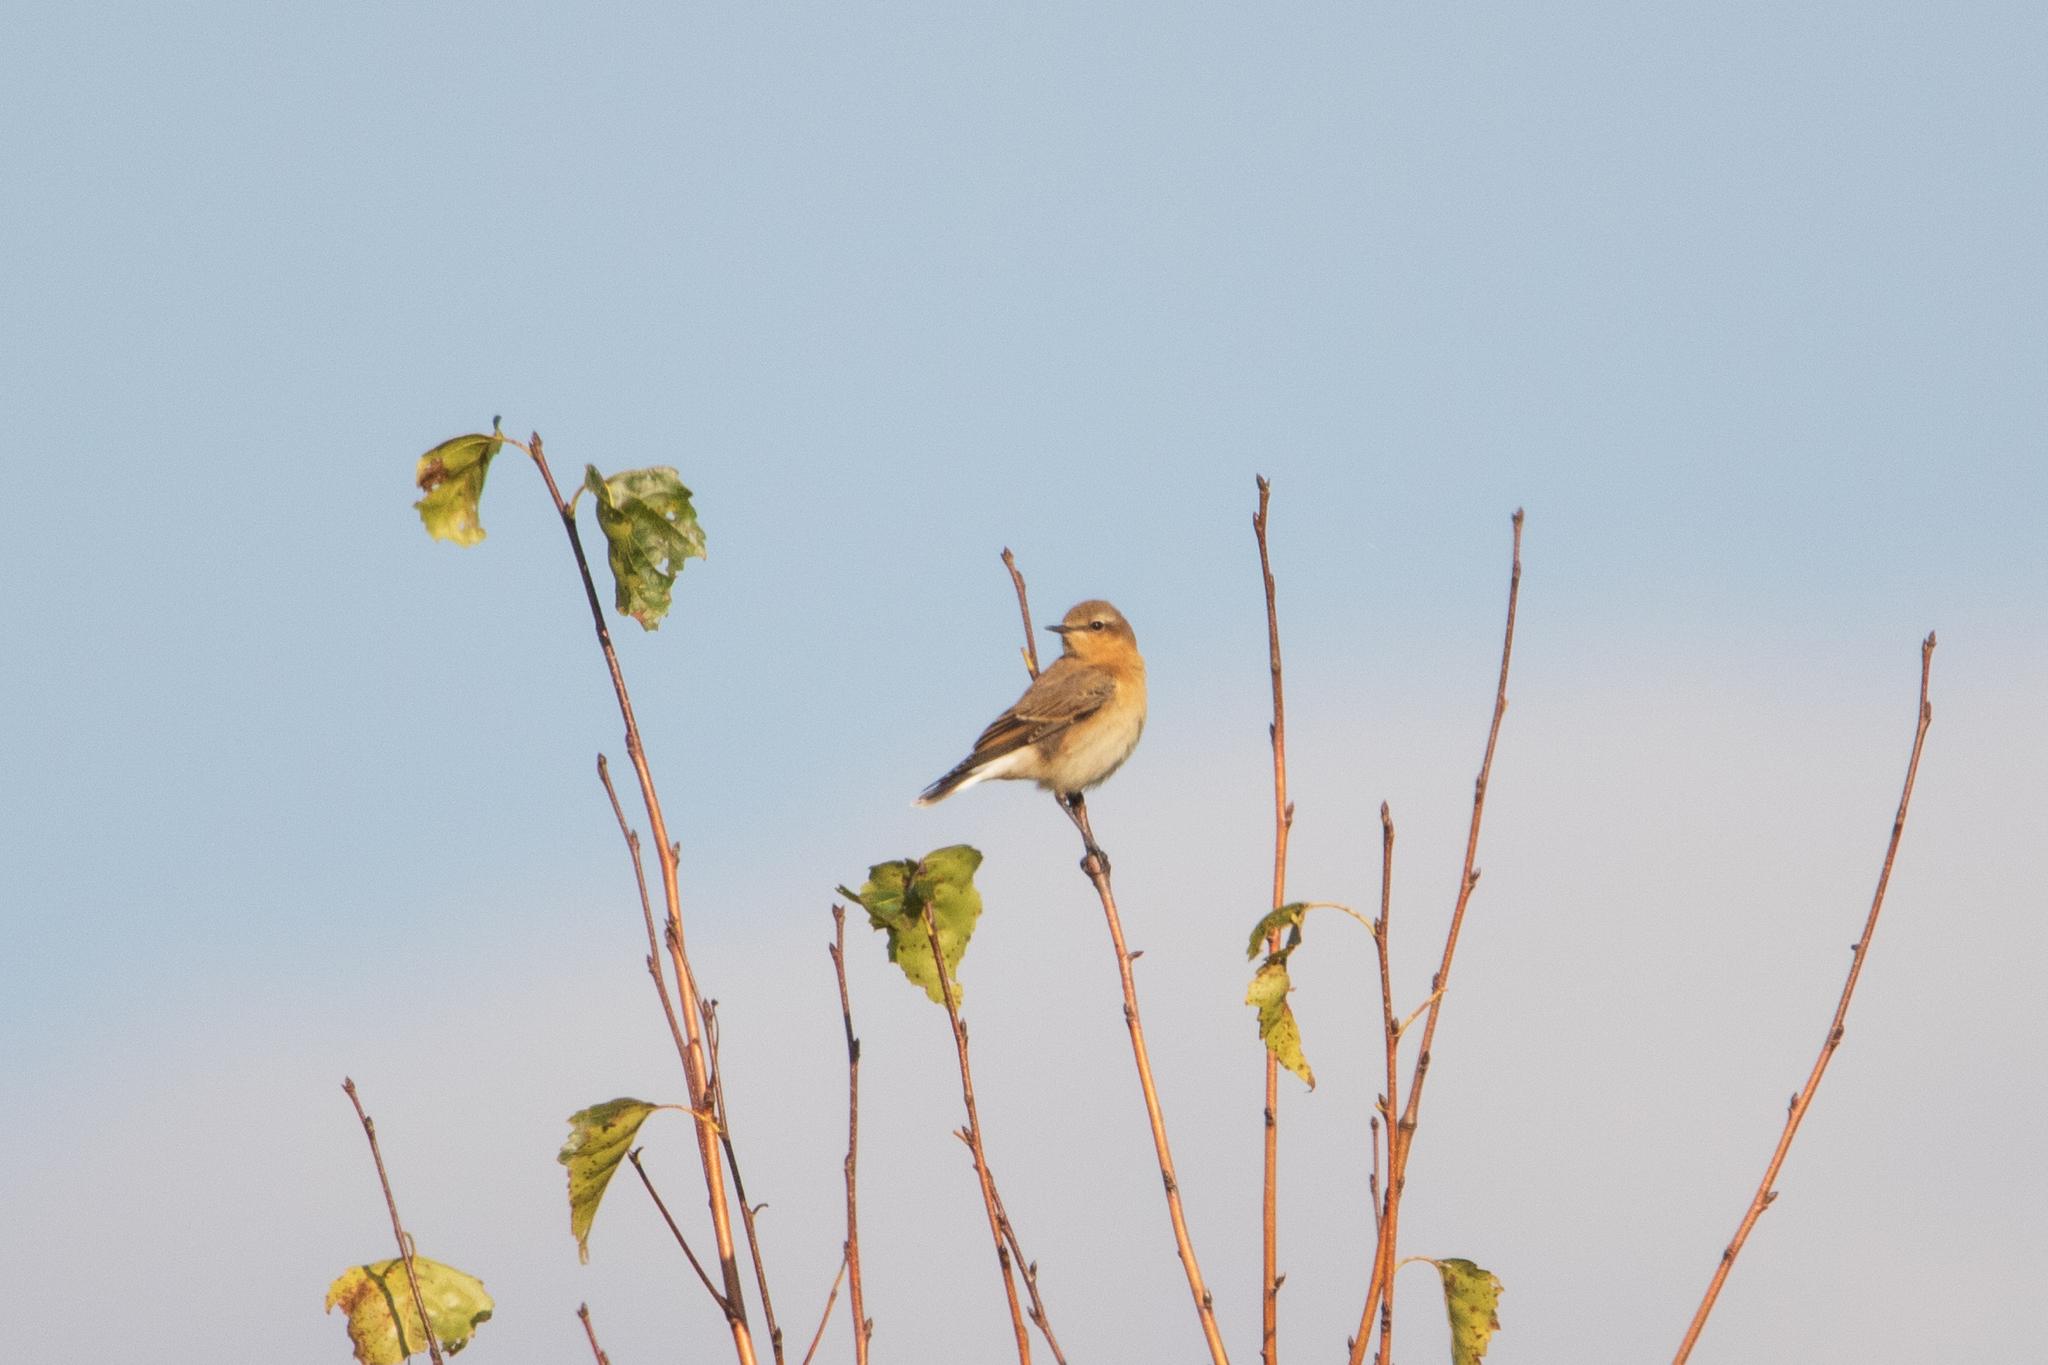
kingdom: Animalia
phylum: Chordata
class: Aves
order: Passeriformes
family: Muscicapidae
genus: Oenanthe
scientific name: Oenanthe oenanthe
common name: Northern wheatear
